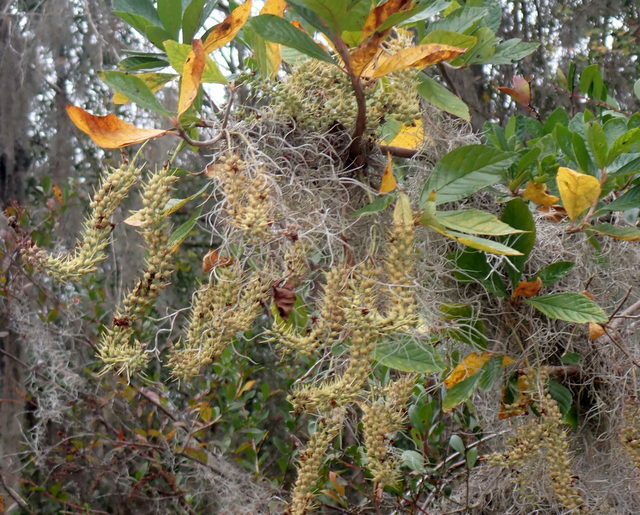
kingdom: Plantae
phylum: Tracheophyta
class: Magnoliopsida
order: Ericales
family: Clethraceae
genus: Clethra
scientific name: Clethra alnifolia
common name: Sweet pepperbush
